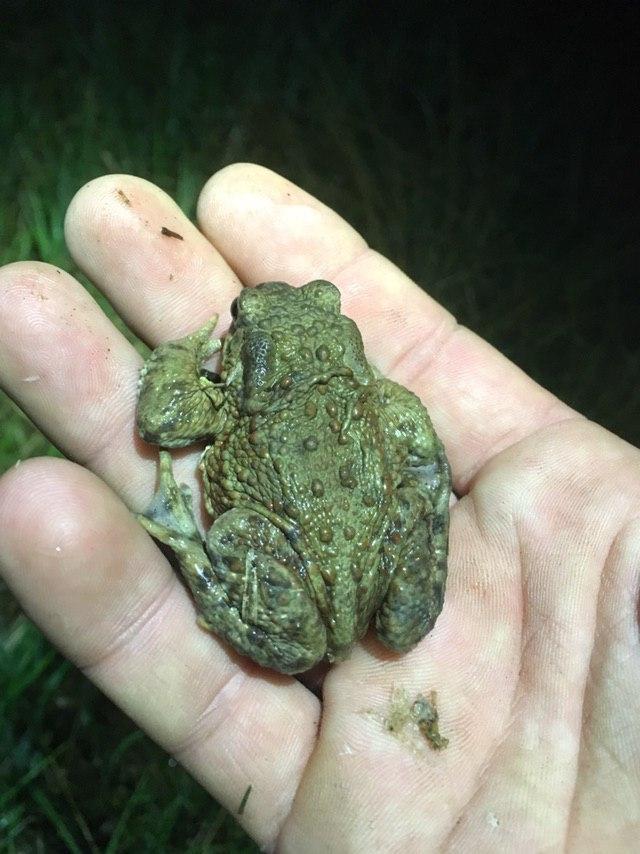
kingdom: Animalia
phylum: Chordata
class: Amphibia
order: Anura
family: Bufonidae
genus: Bufo
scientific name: Bufo bufo
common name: Common toad
